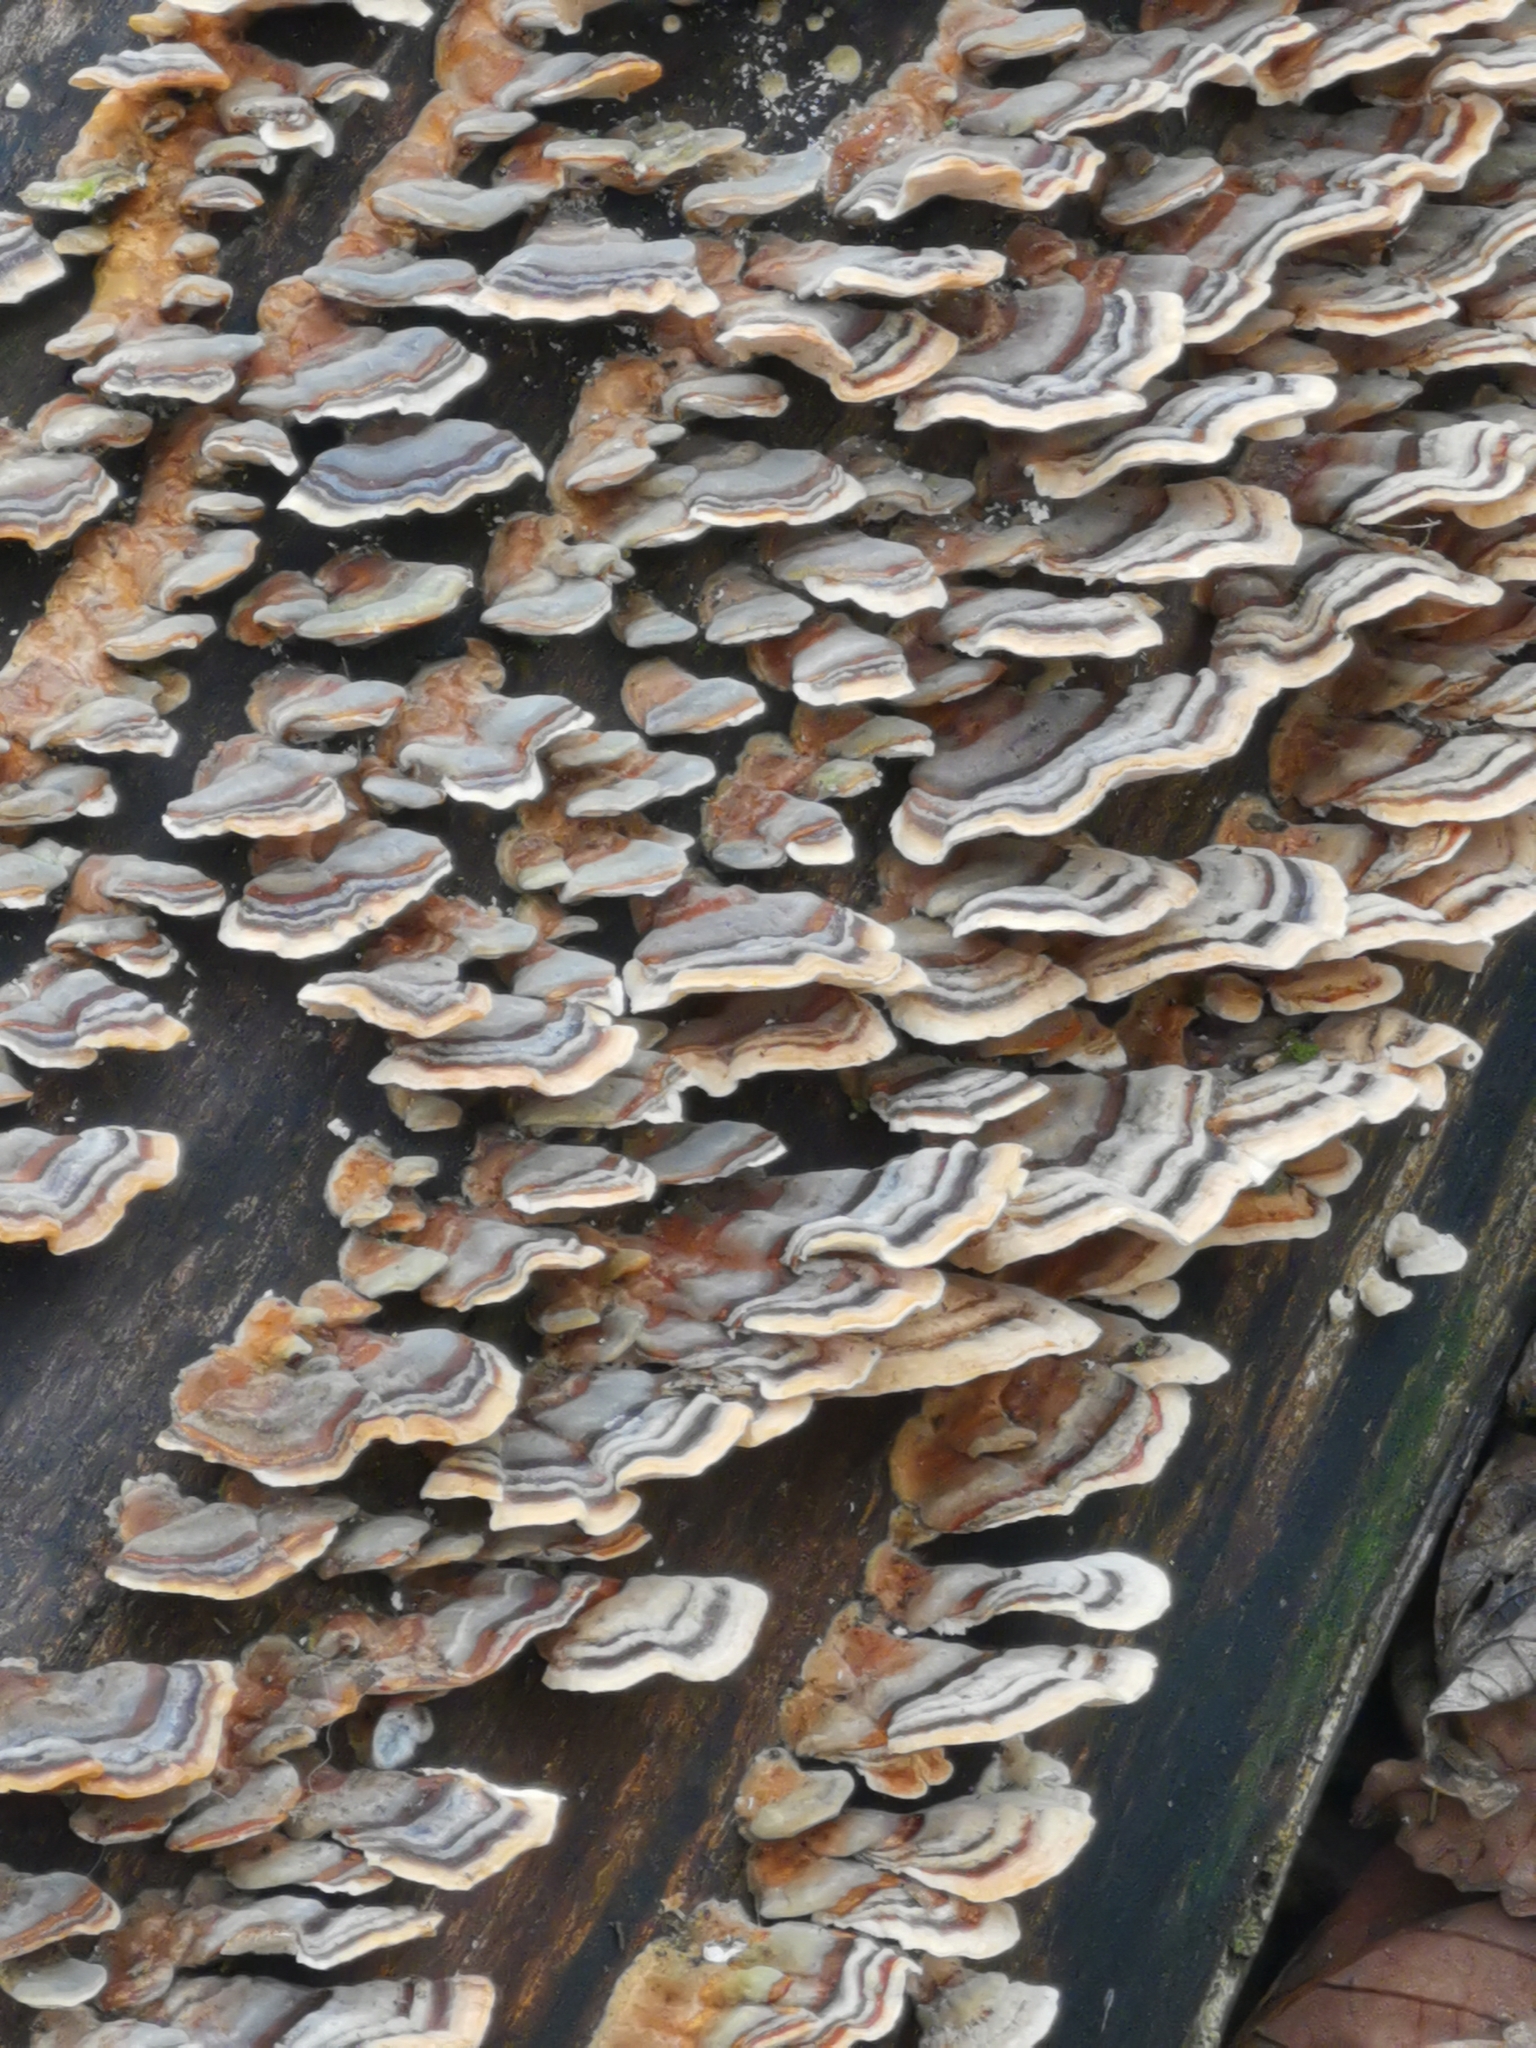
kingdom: Fungi
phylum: Basidiomycota
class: Agaricomycetes
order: Polyporales
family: Polyporaceae
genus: Trametes
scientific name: Trametes versicolor
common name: Turkeytail
